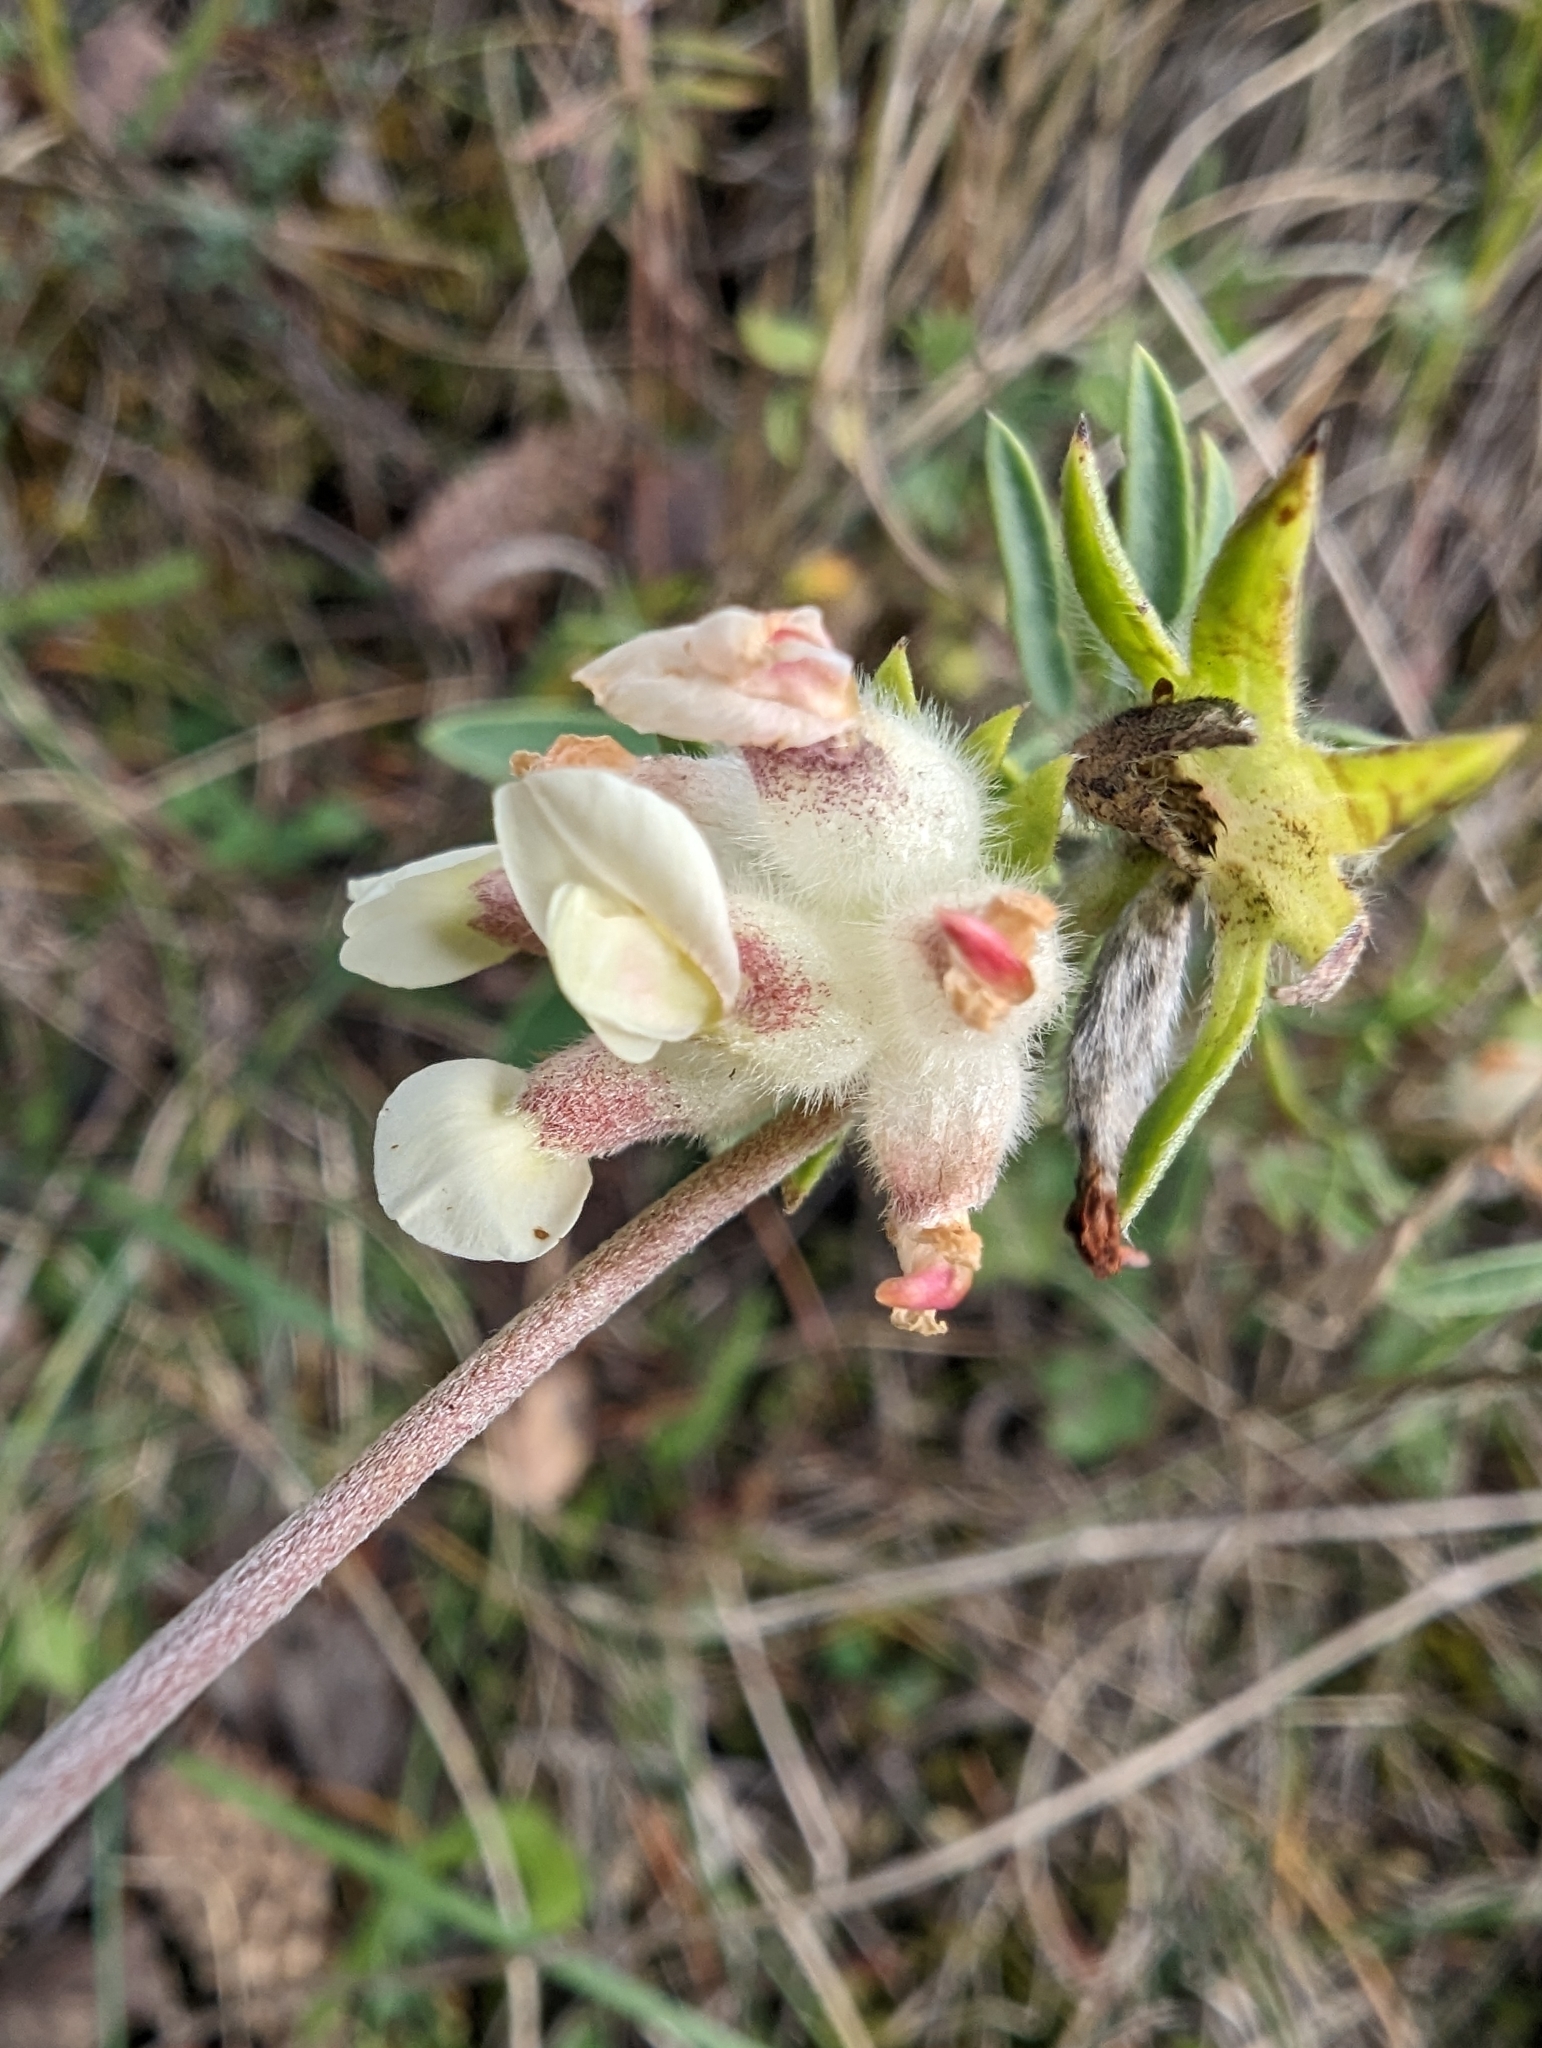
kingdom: Plantae
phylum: Tracheophyta
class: Magnoliopsida
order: Fabales
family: Fabaceae
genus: Anthyllis
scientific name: Anthyllis vulneraria
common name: Kidney vetch
